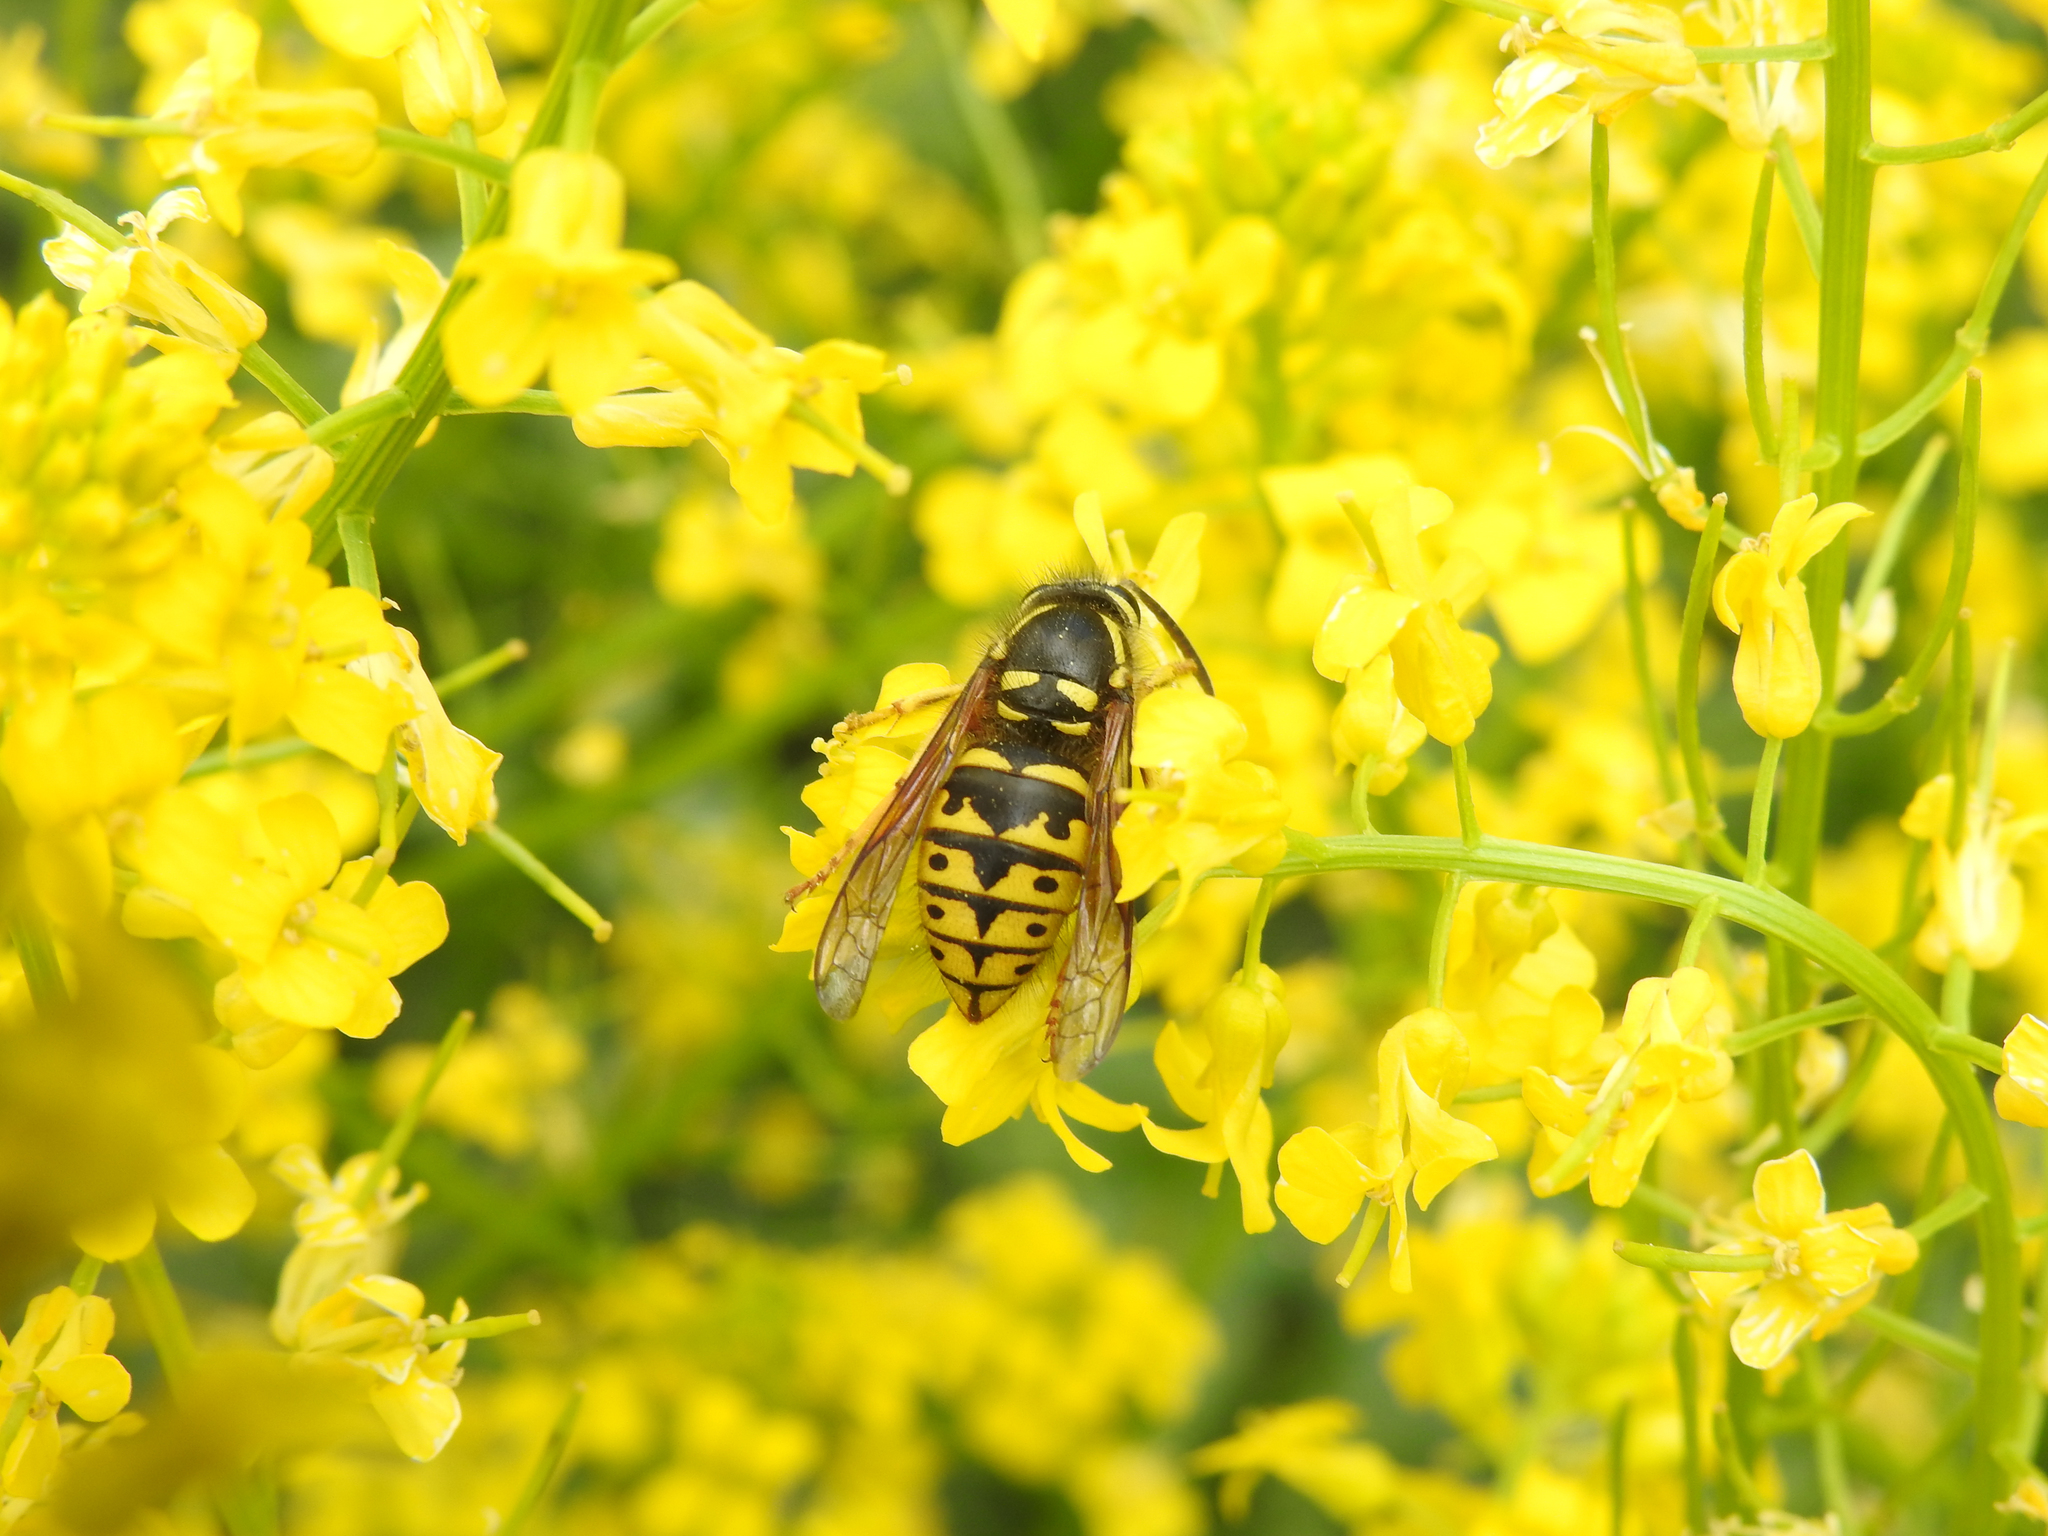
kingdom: Animalia
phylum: Arthropoda
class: Insecta
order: Hymenoptera
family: Vespidae
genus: Dolichovespula
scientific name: Dolichovespula arenaria
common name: Aerial yellowjacket
